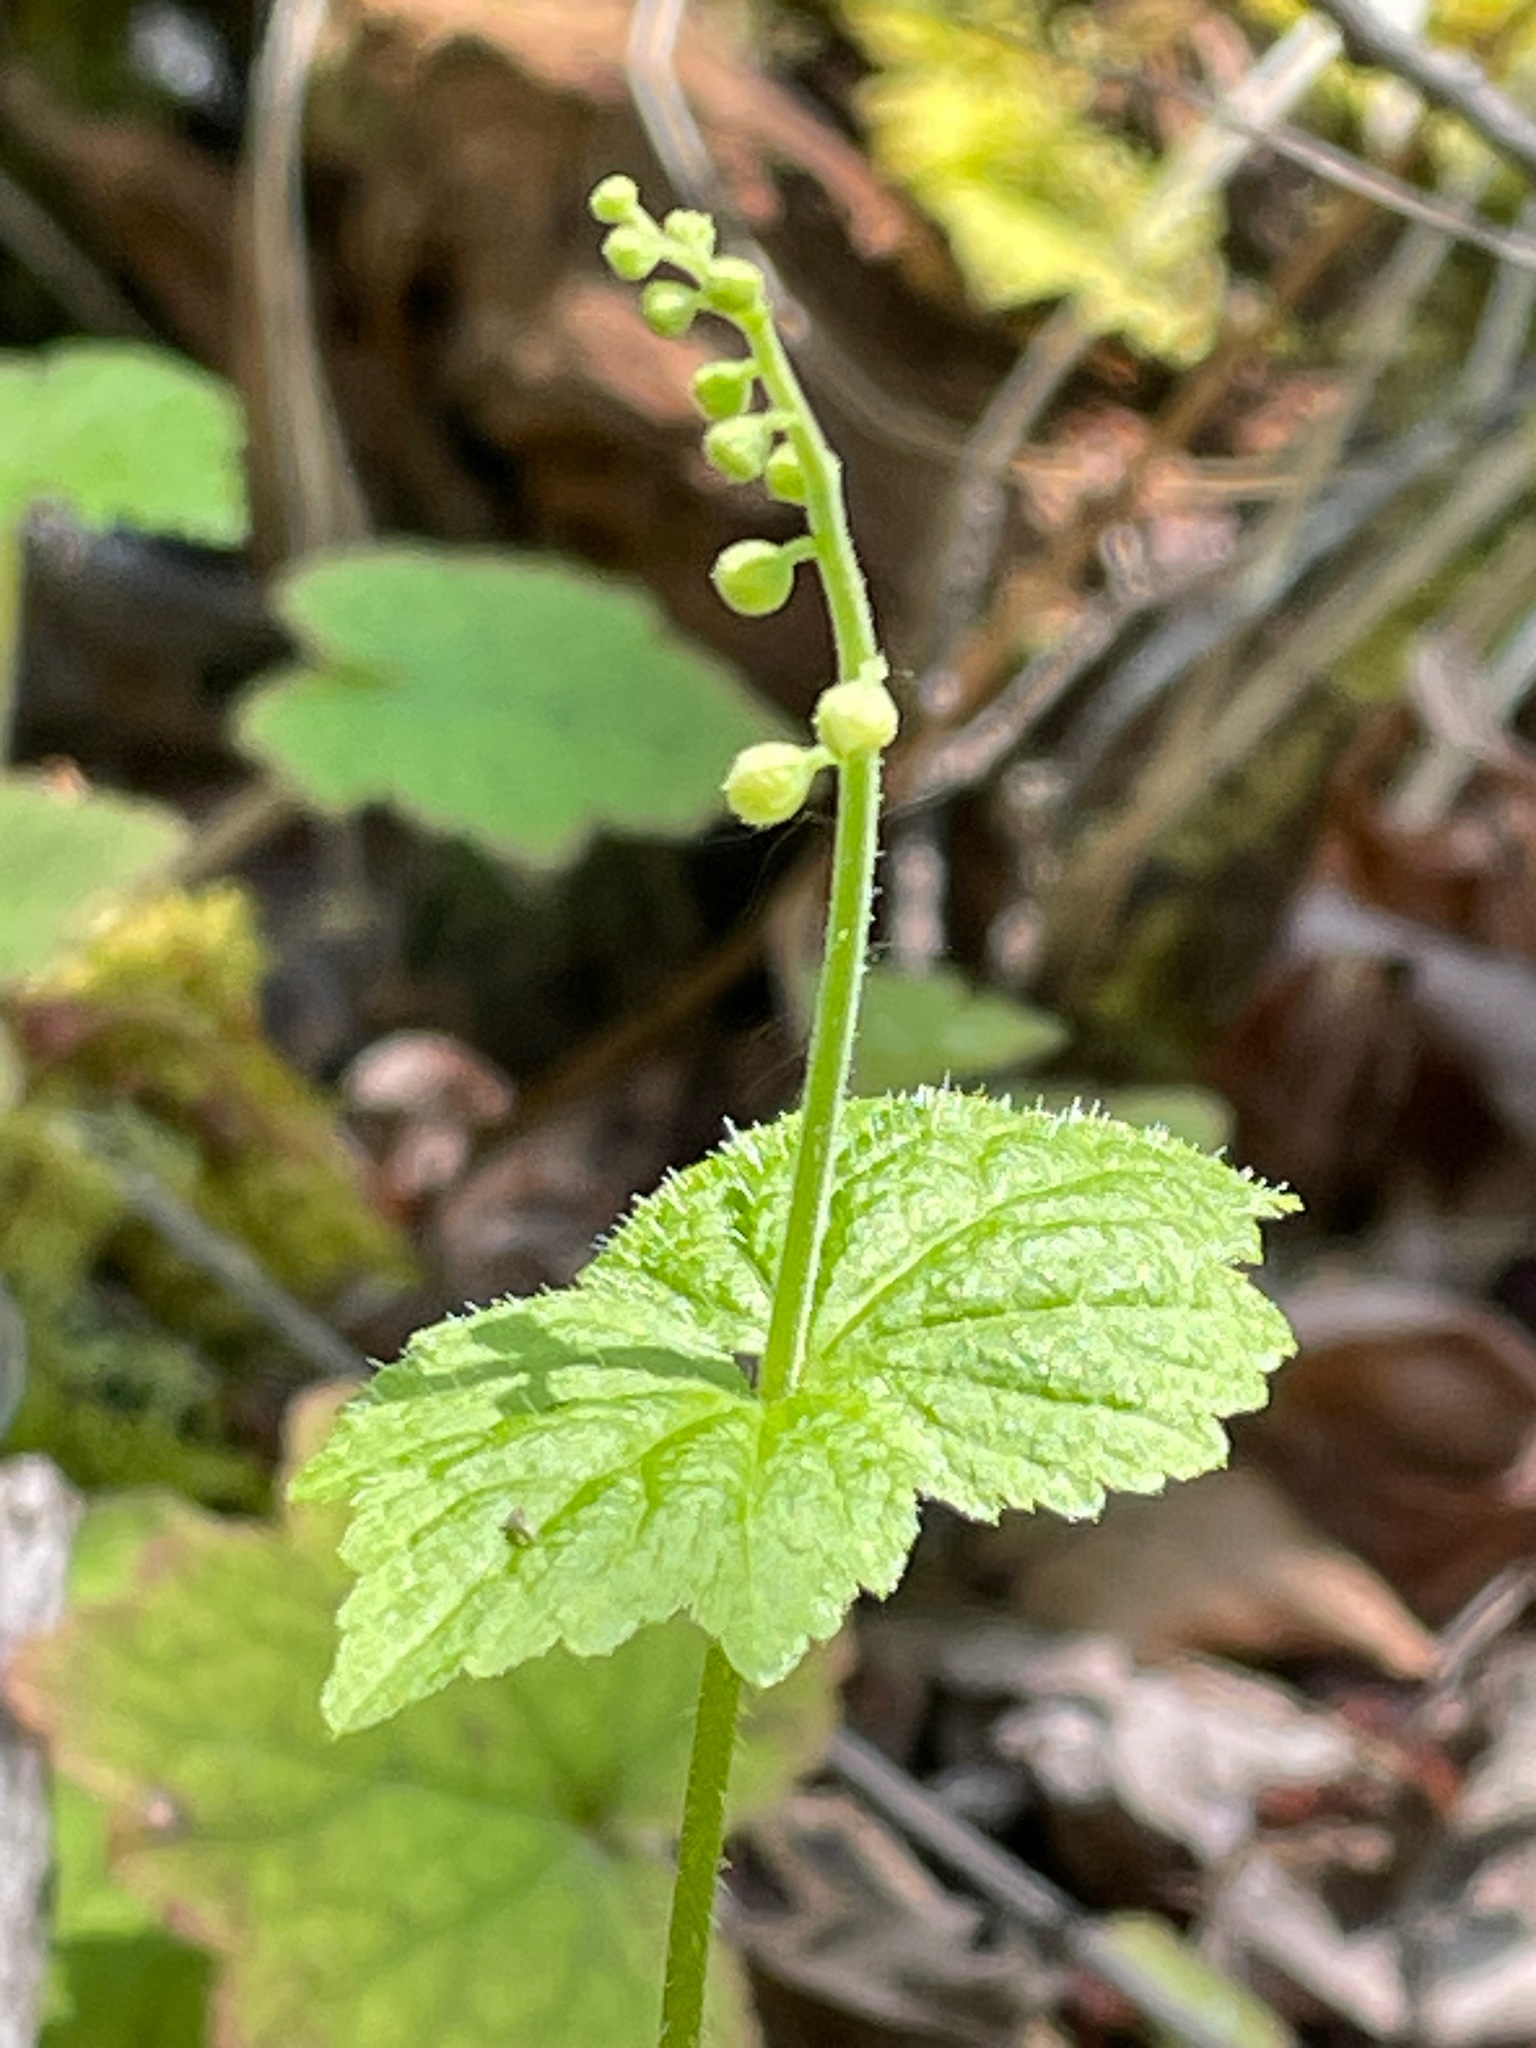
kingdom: Plantae
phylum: Tracheophyta
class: Magnoliopsida
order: Saxifragales
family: Saxifragaceae
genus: Mitella
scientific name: Mitella diphylla
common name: Coolwort
